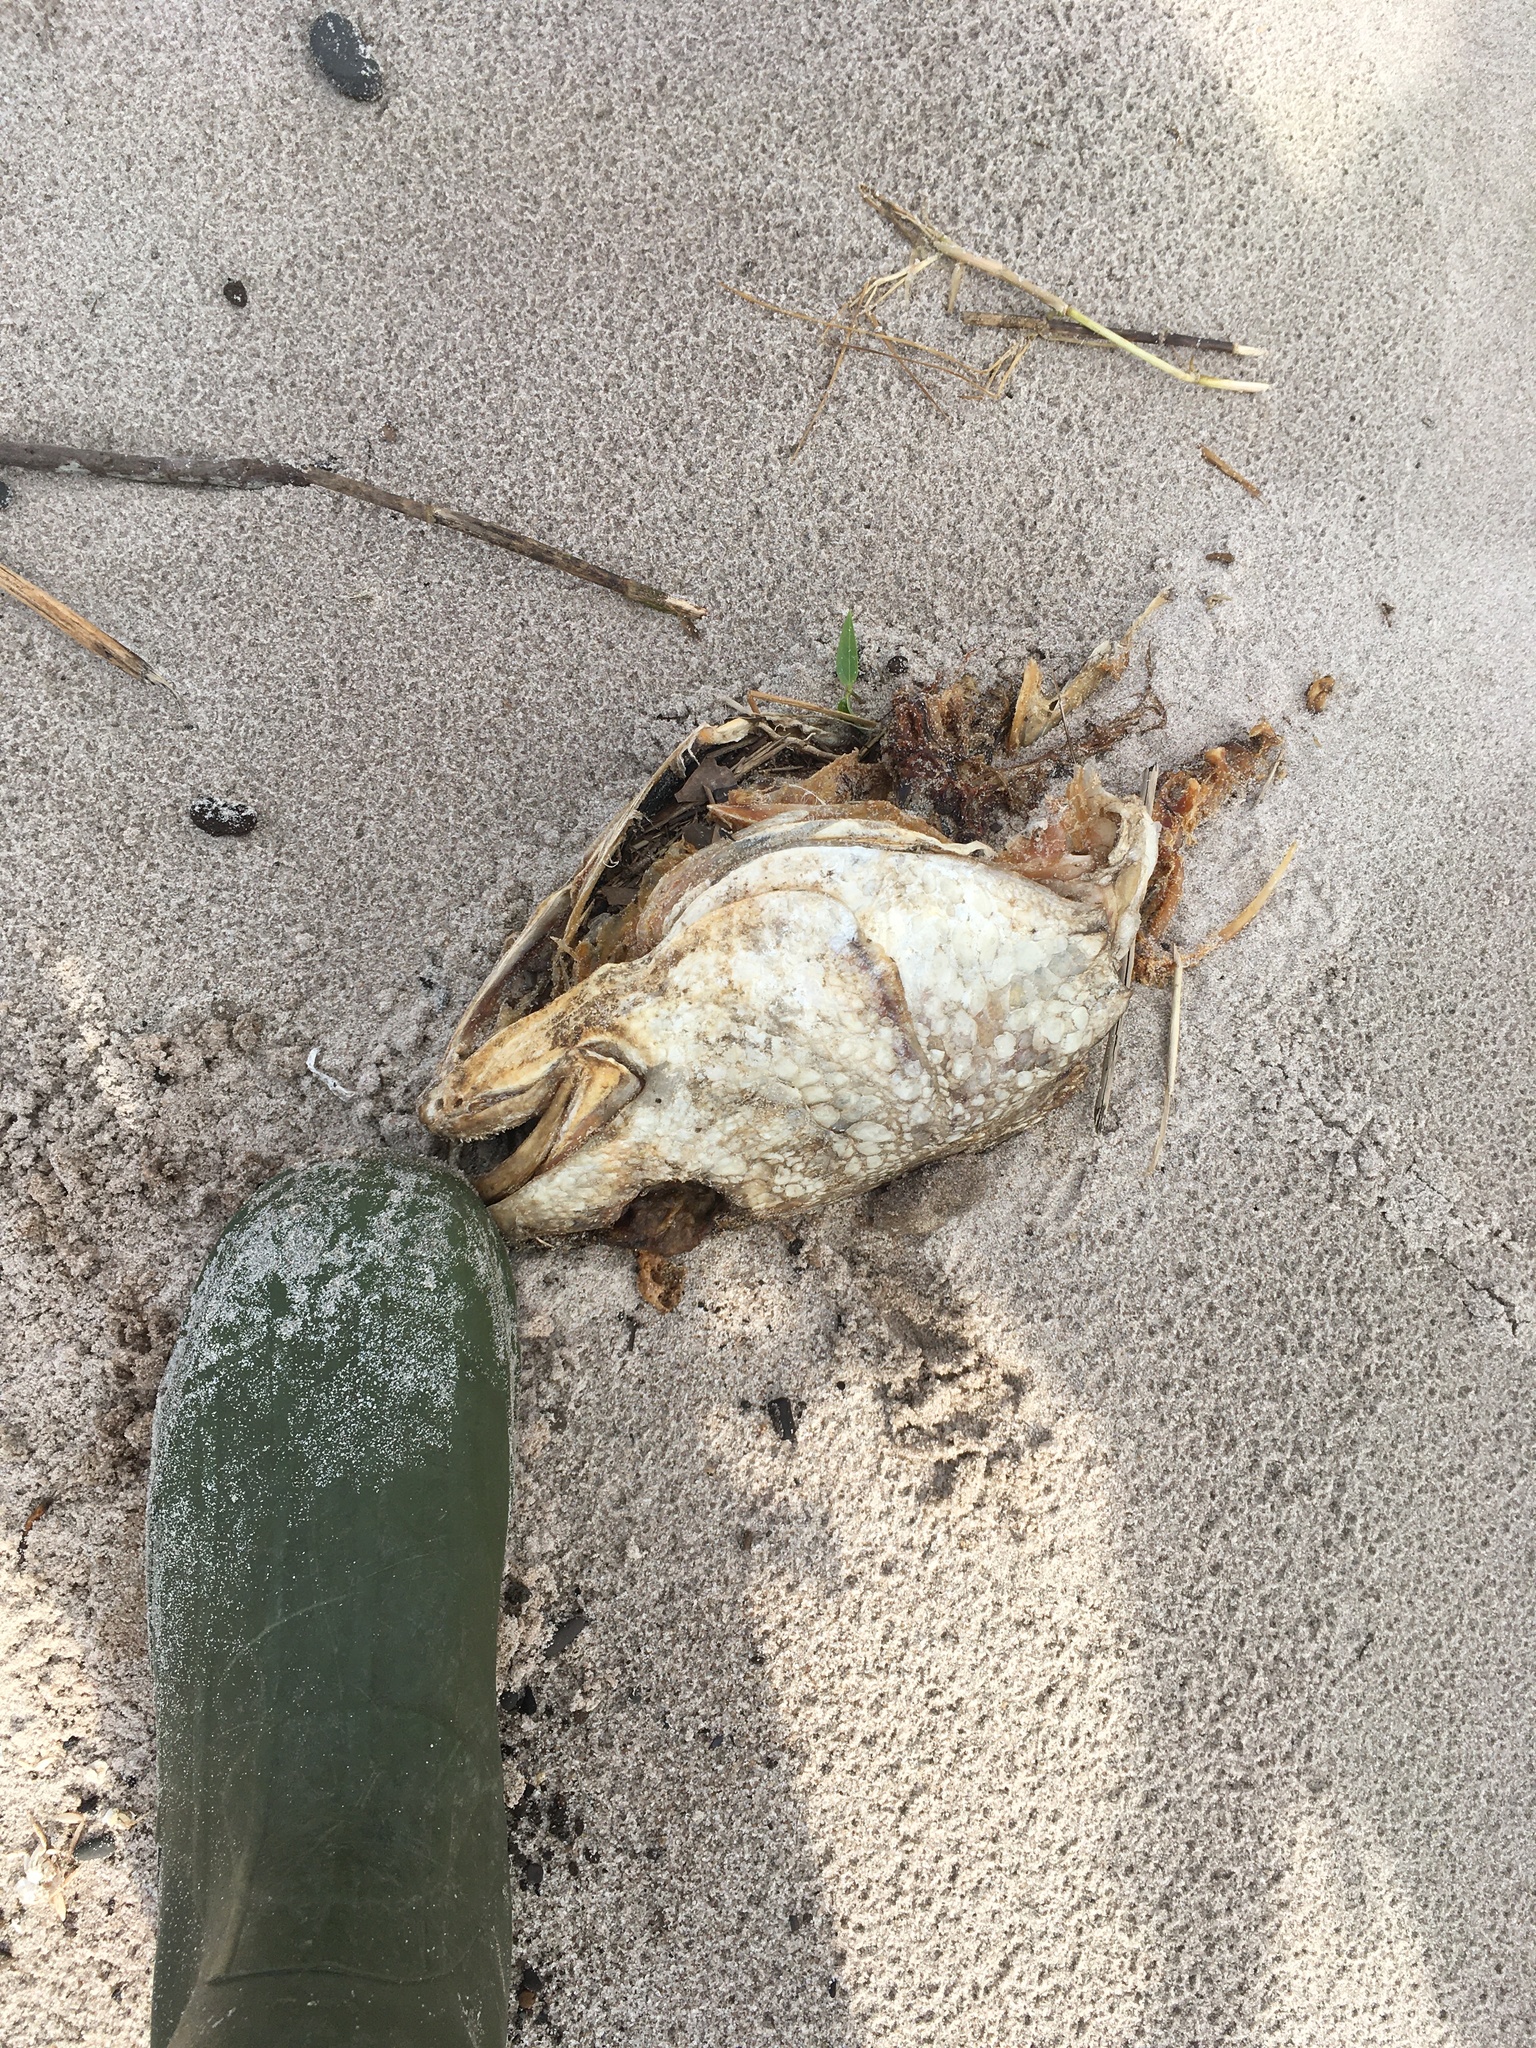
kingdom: Animalia
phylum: Chordata
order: Perciformes
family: Sciaenidae
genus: Sciaenops
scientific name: Sciaenops ocellatus
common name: Red drum
